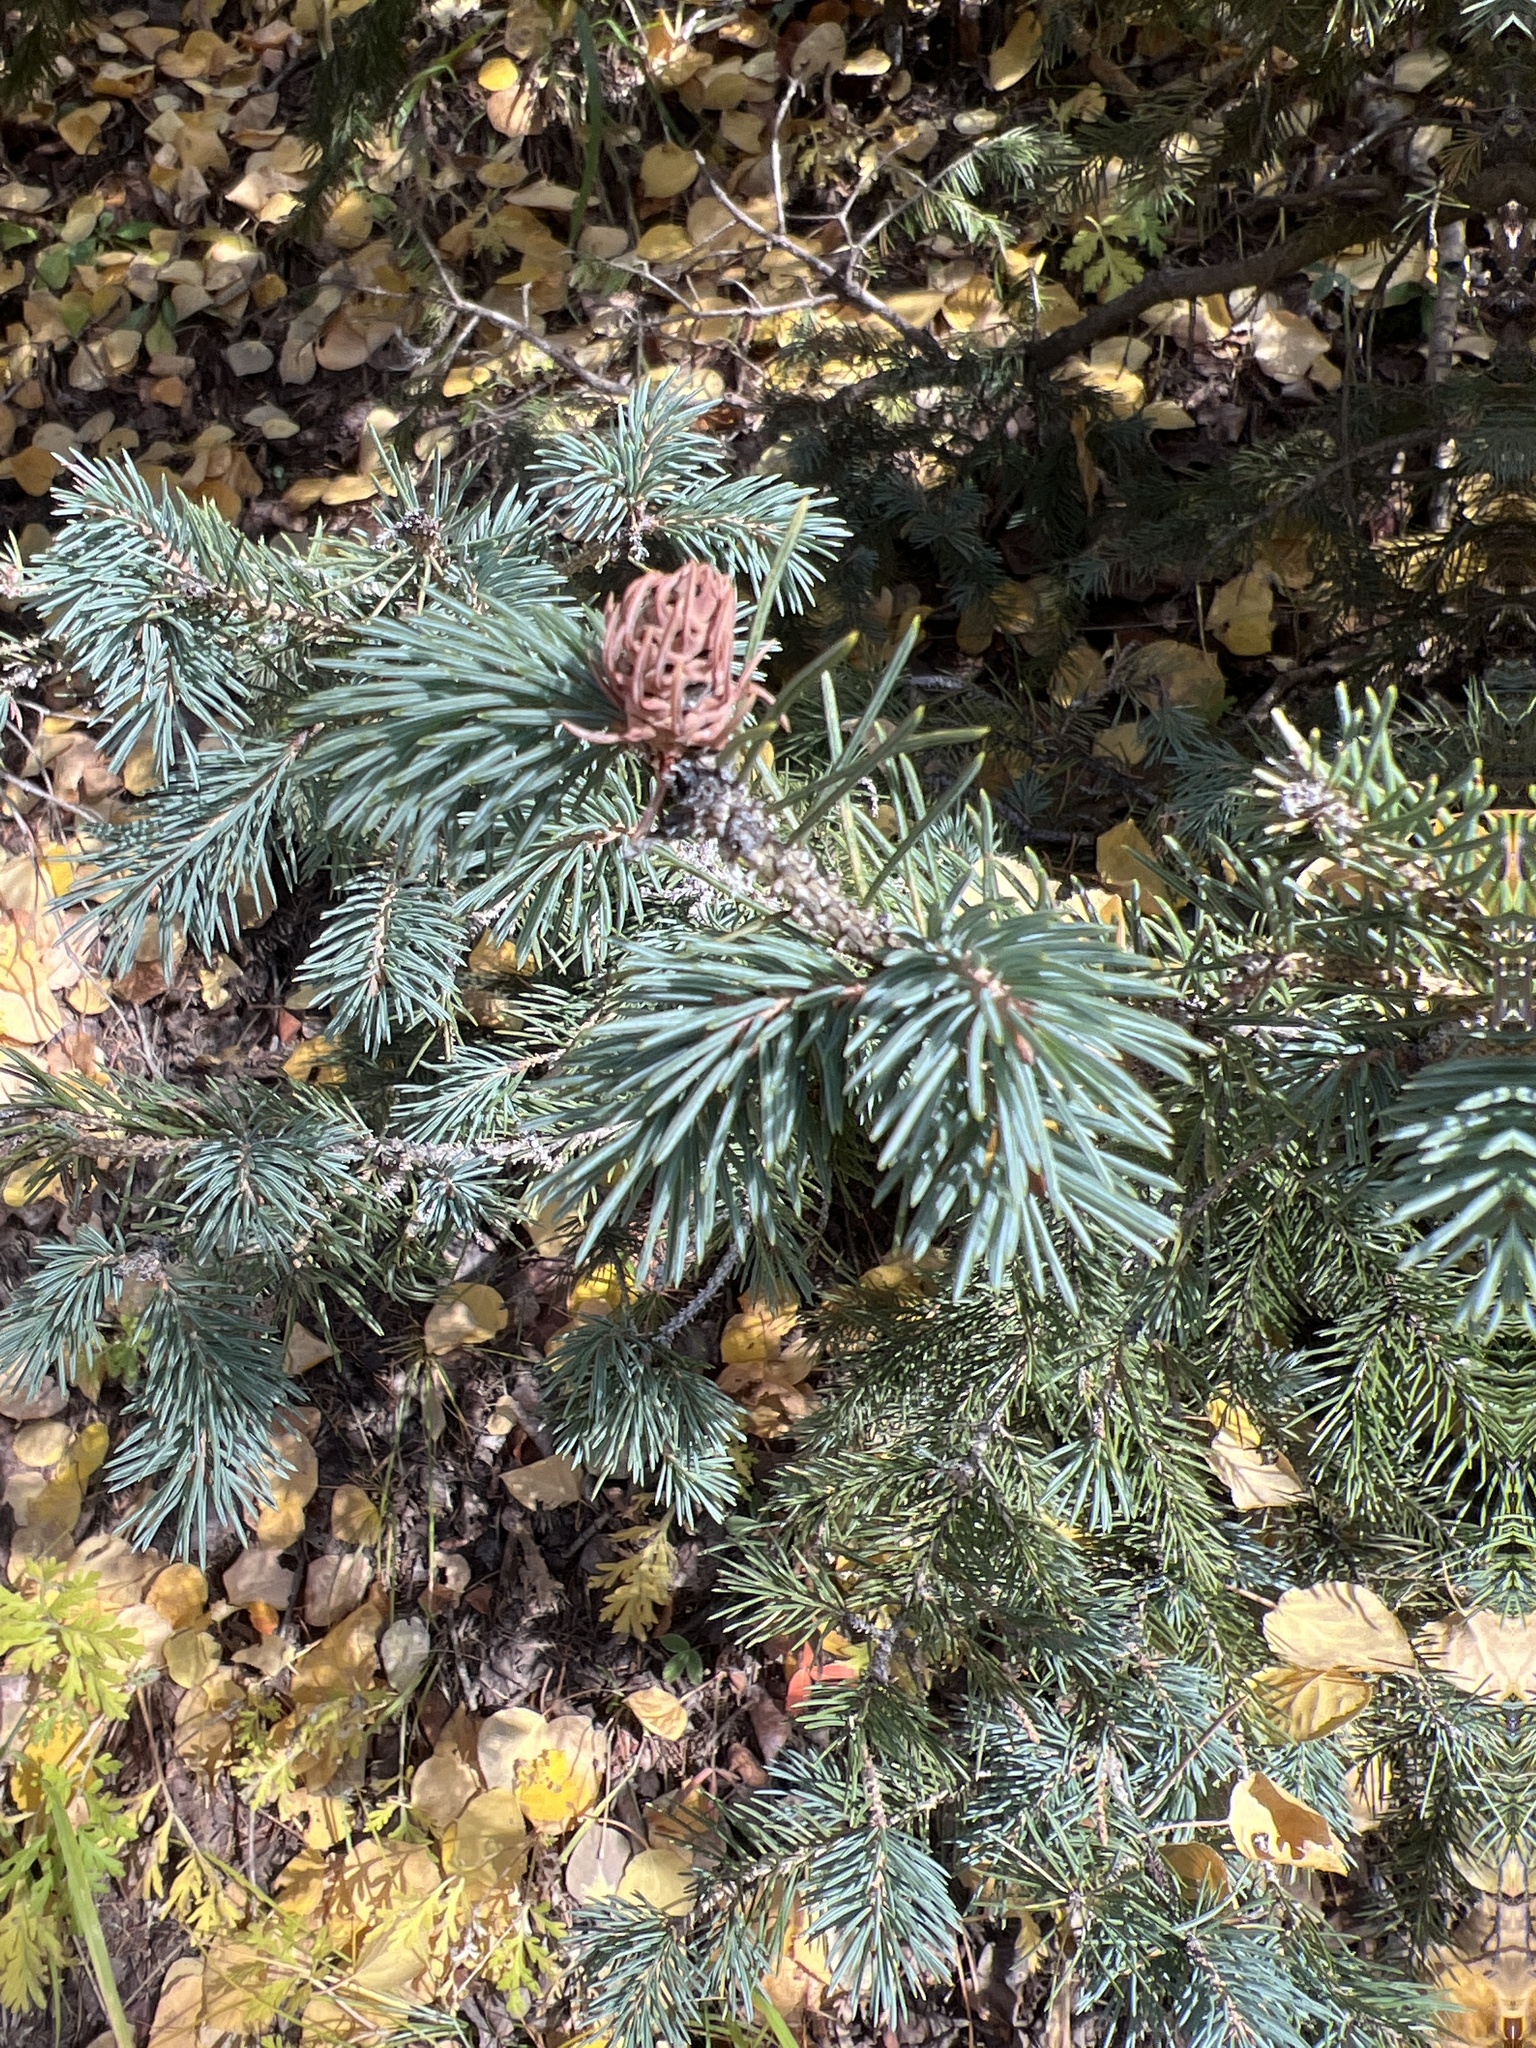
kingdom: Plantae
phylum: Tracheophyta
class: Pinopsida
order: Pinales
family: Pinaceae
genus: Picea
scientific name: Picea pungens
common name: Colorado spruce
